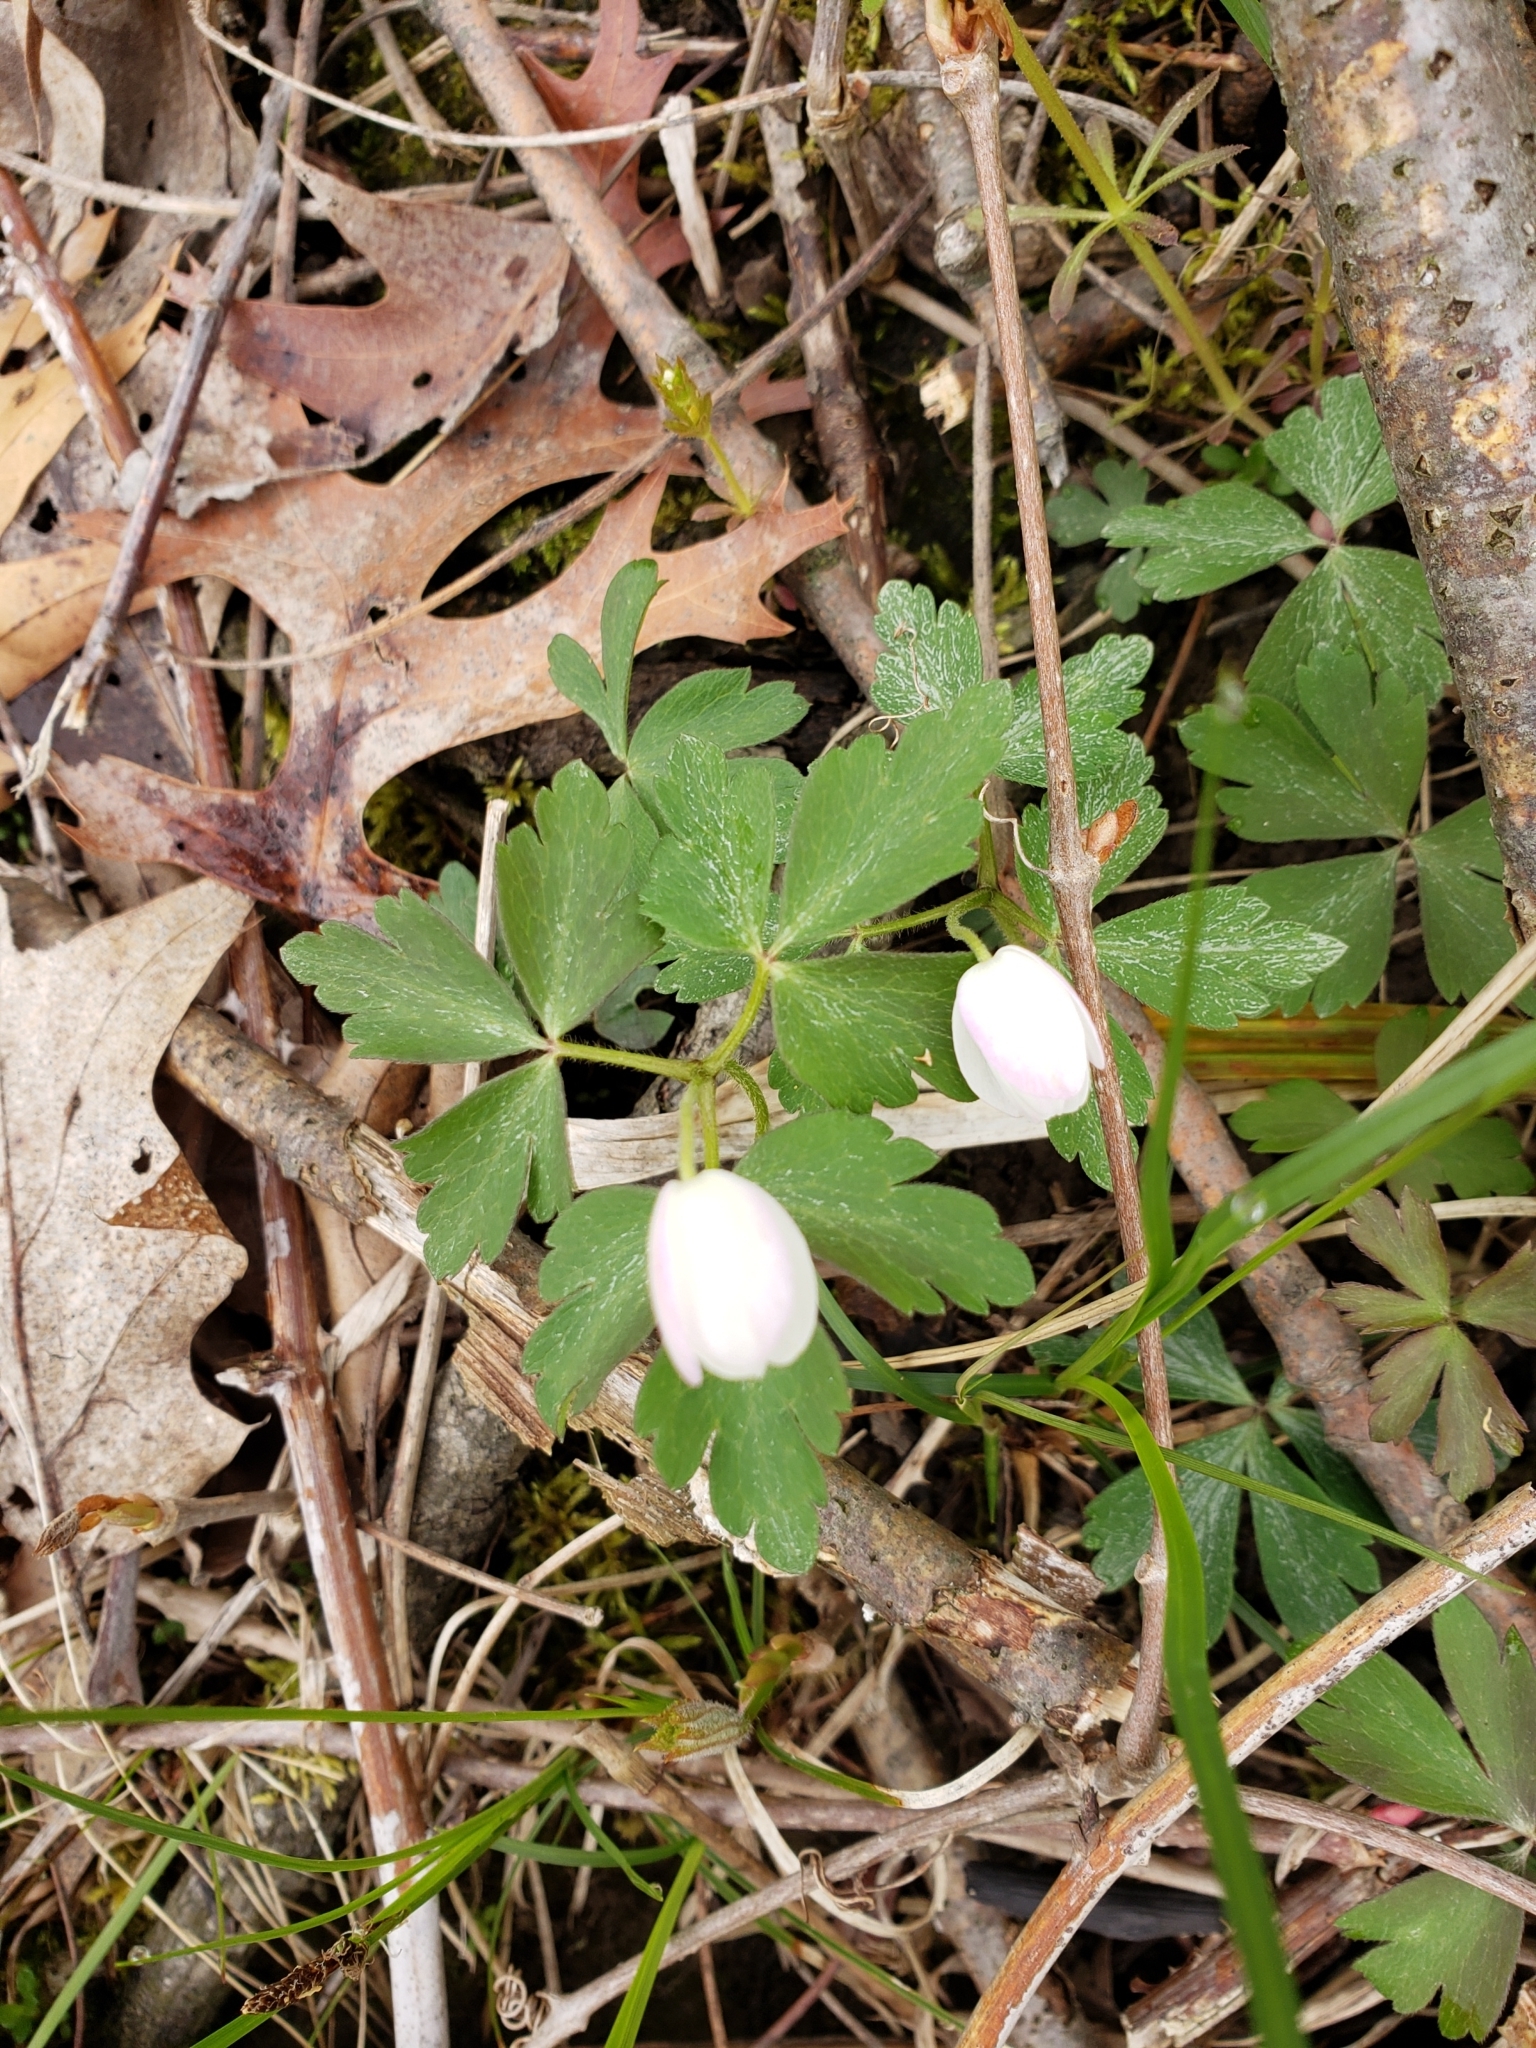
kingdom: Plantae
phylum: Tracheophyta
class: Magnoliopsida
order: Ranunculales
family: Ranunculaceae
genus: Anemone
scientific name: Anemone quinquefolia
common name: Wood anemone
